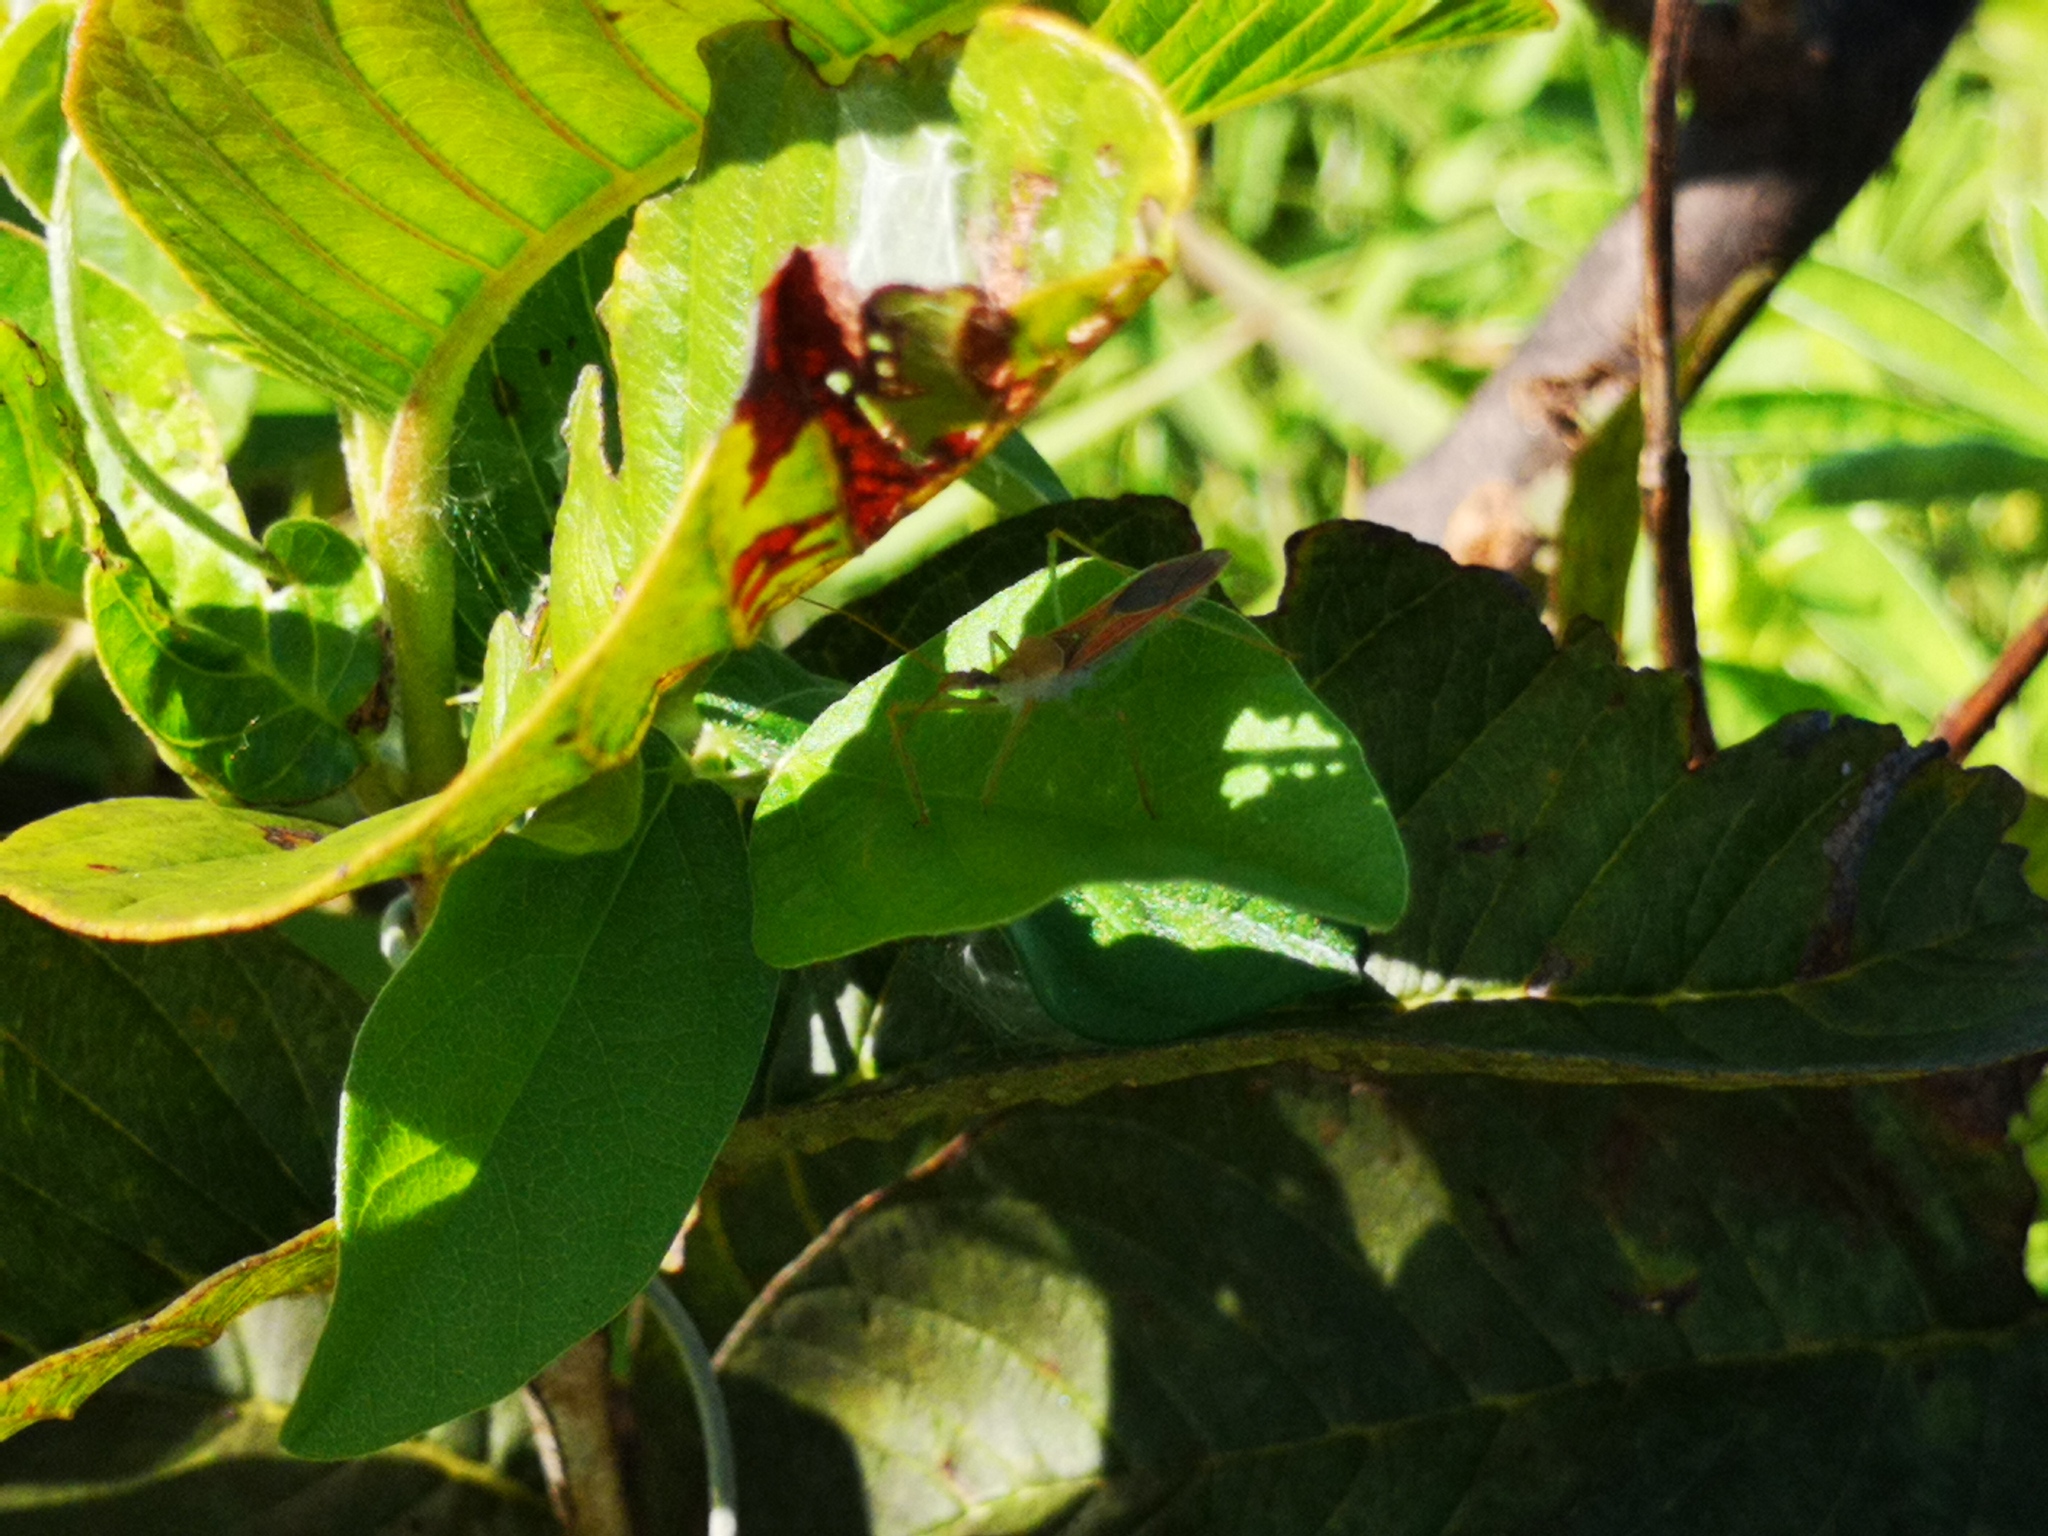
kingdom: Animalia
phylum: Arthropoda
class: Insecta
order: Hemiptera
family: Reduviidae
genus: Zelus
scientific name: Zelus renardii
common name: Assassin bug
